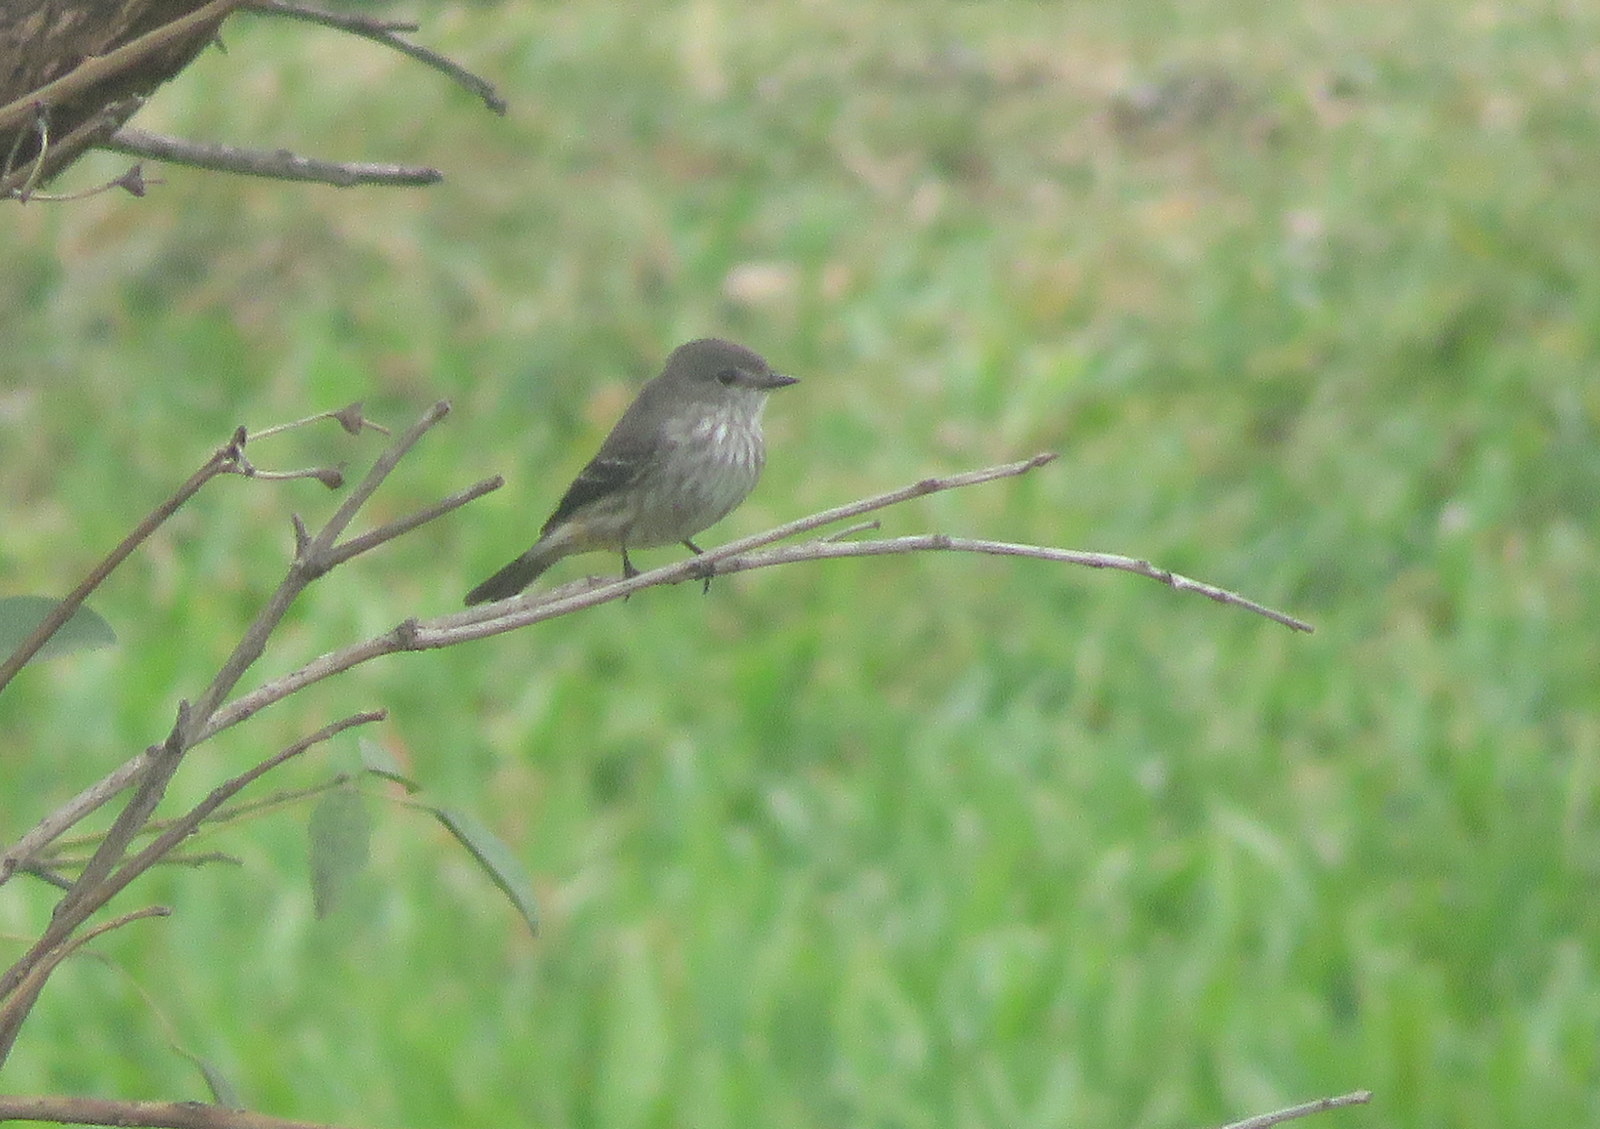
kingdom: Animalia
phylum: Chordata
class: Aves
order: Passeriformes
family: Tyrannidae
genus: Pyrocephalus
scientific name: Pyrocephalus rubinus
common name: Vermilion flycatcher
